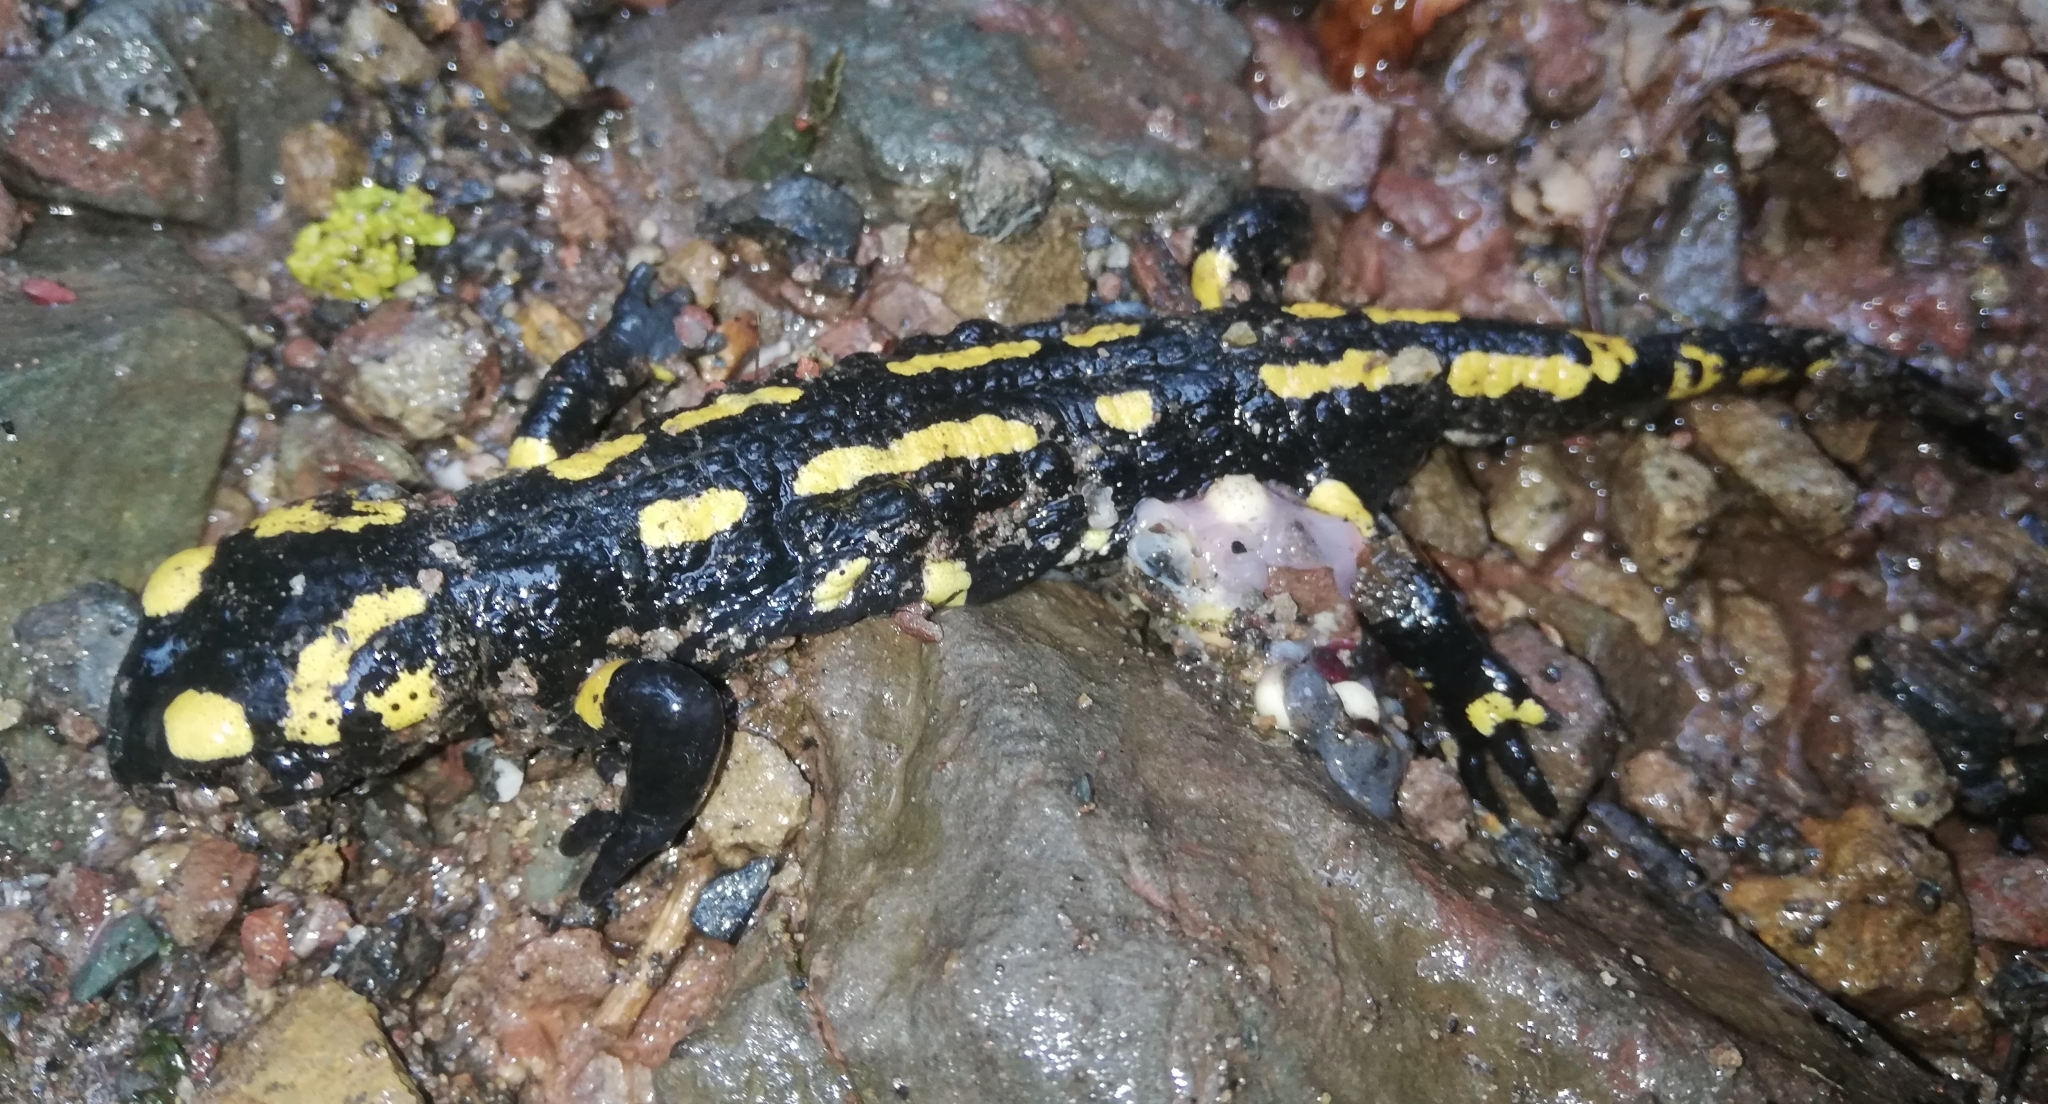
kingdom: Animalia
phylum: Chordata
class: Amphibia
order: Caudata
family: Salamandridae
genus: Salamandra
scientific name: Salamandra salamandra
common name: Fire salamander
